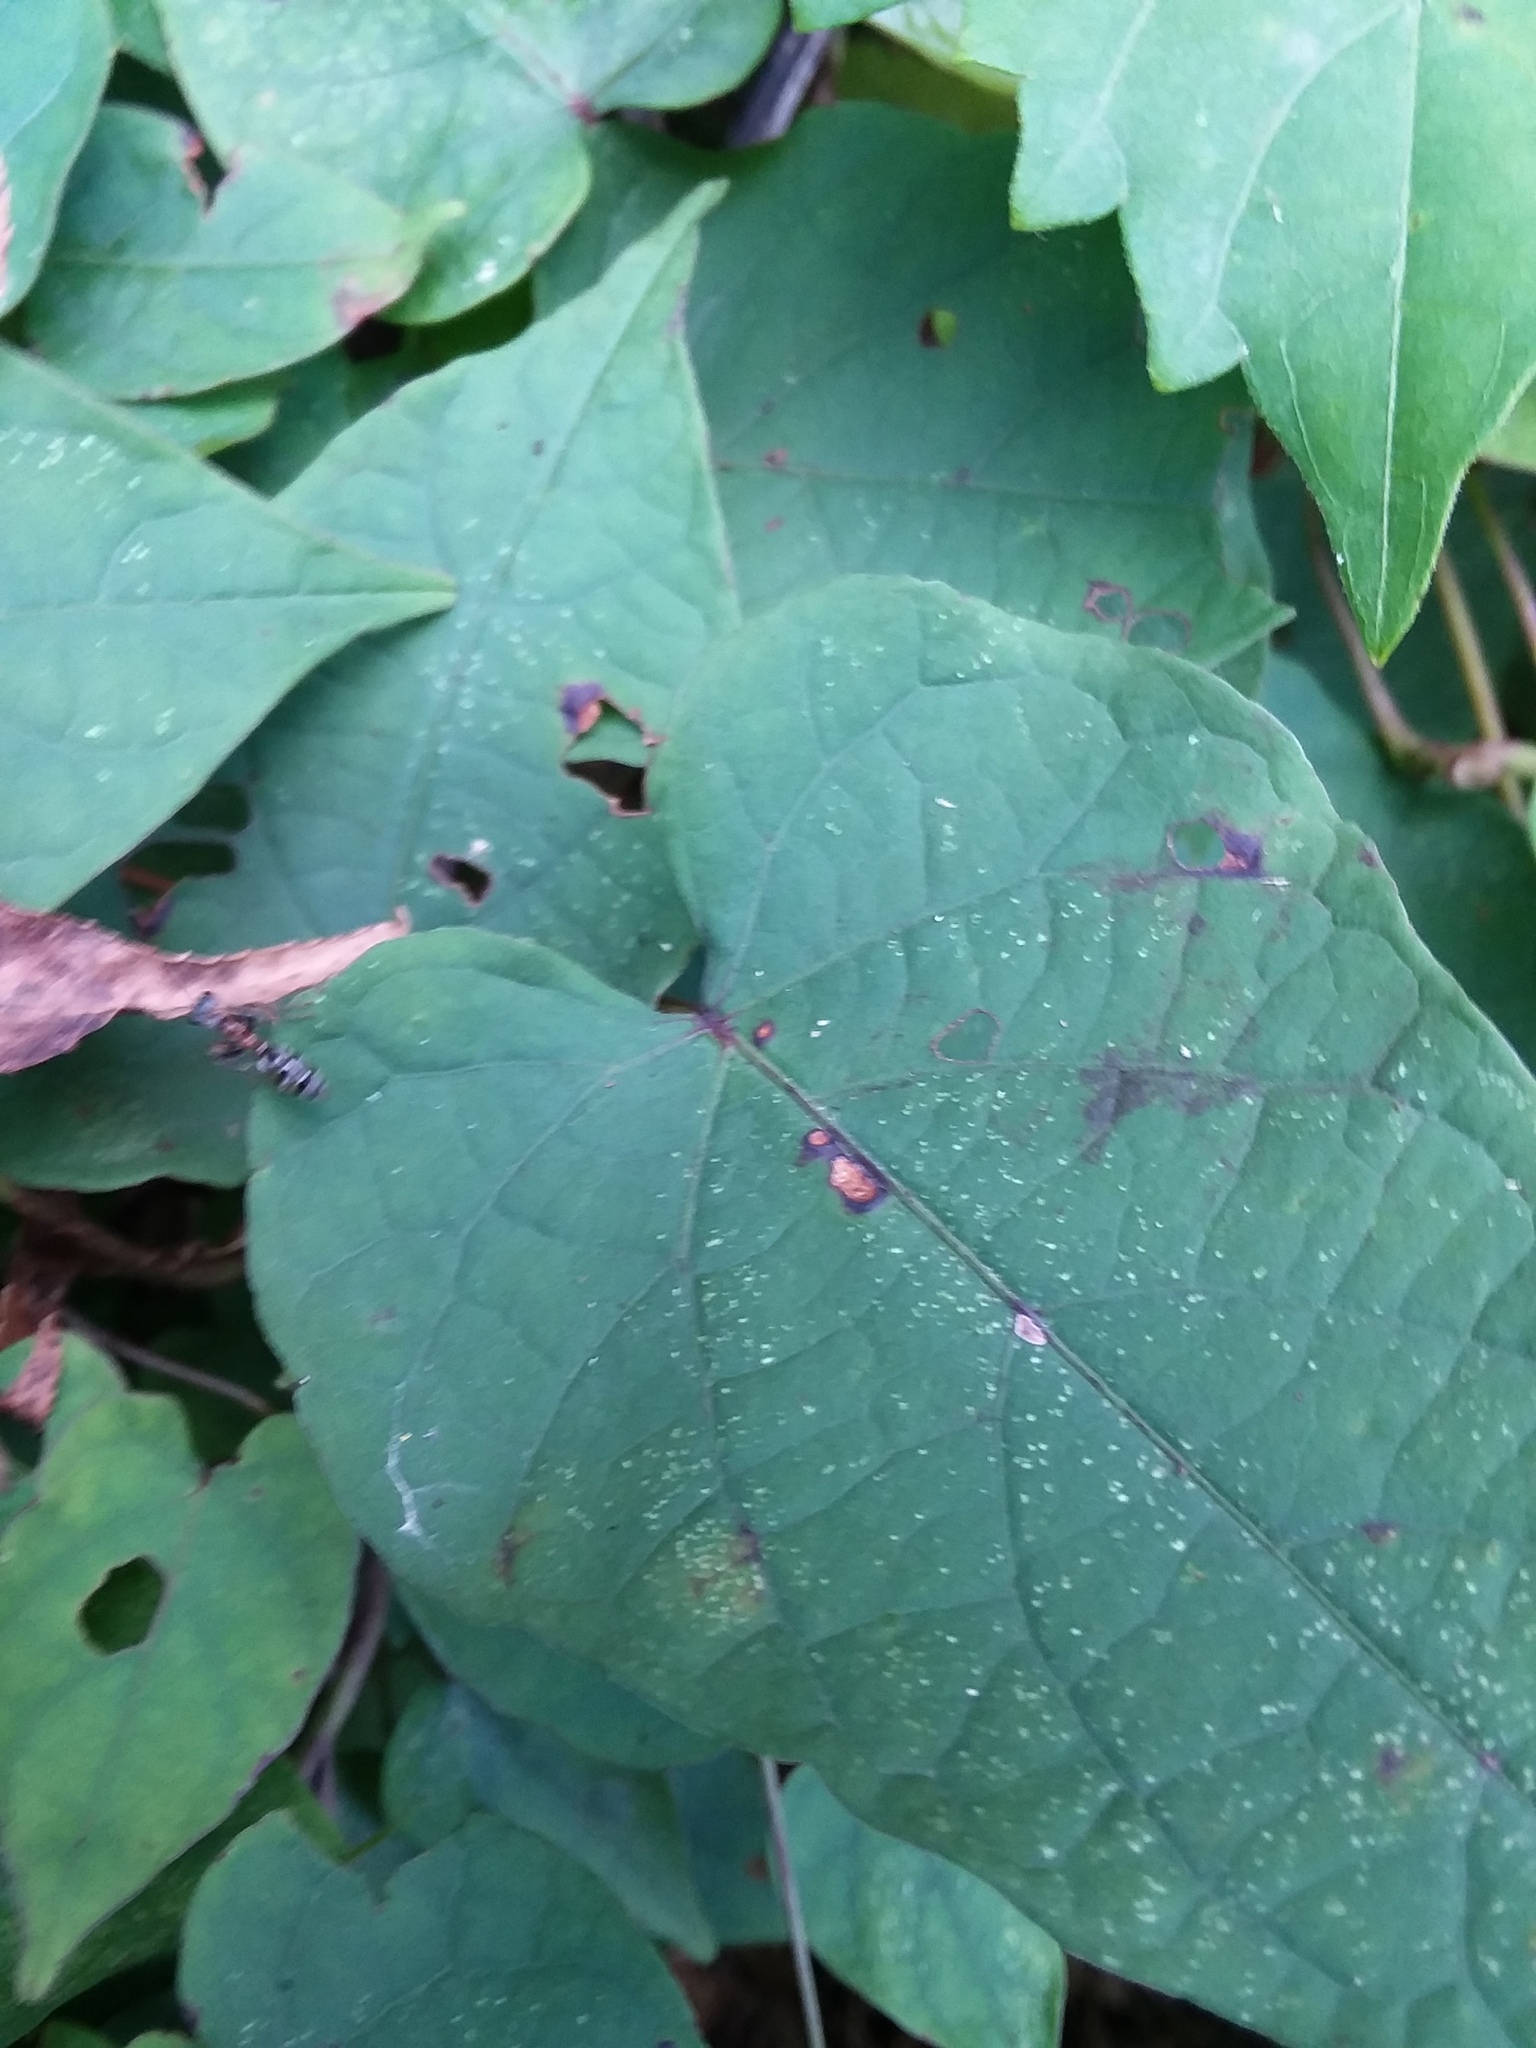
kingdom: Animalia
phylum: Arthropoda
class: Insecta
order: Hymenoptera
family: Formicidae
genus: Pseudomyrmex
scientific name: Pseudomyrmex gracilis
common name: Graceful twig ant
